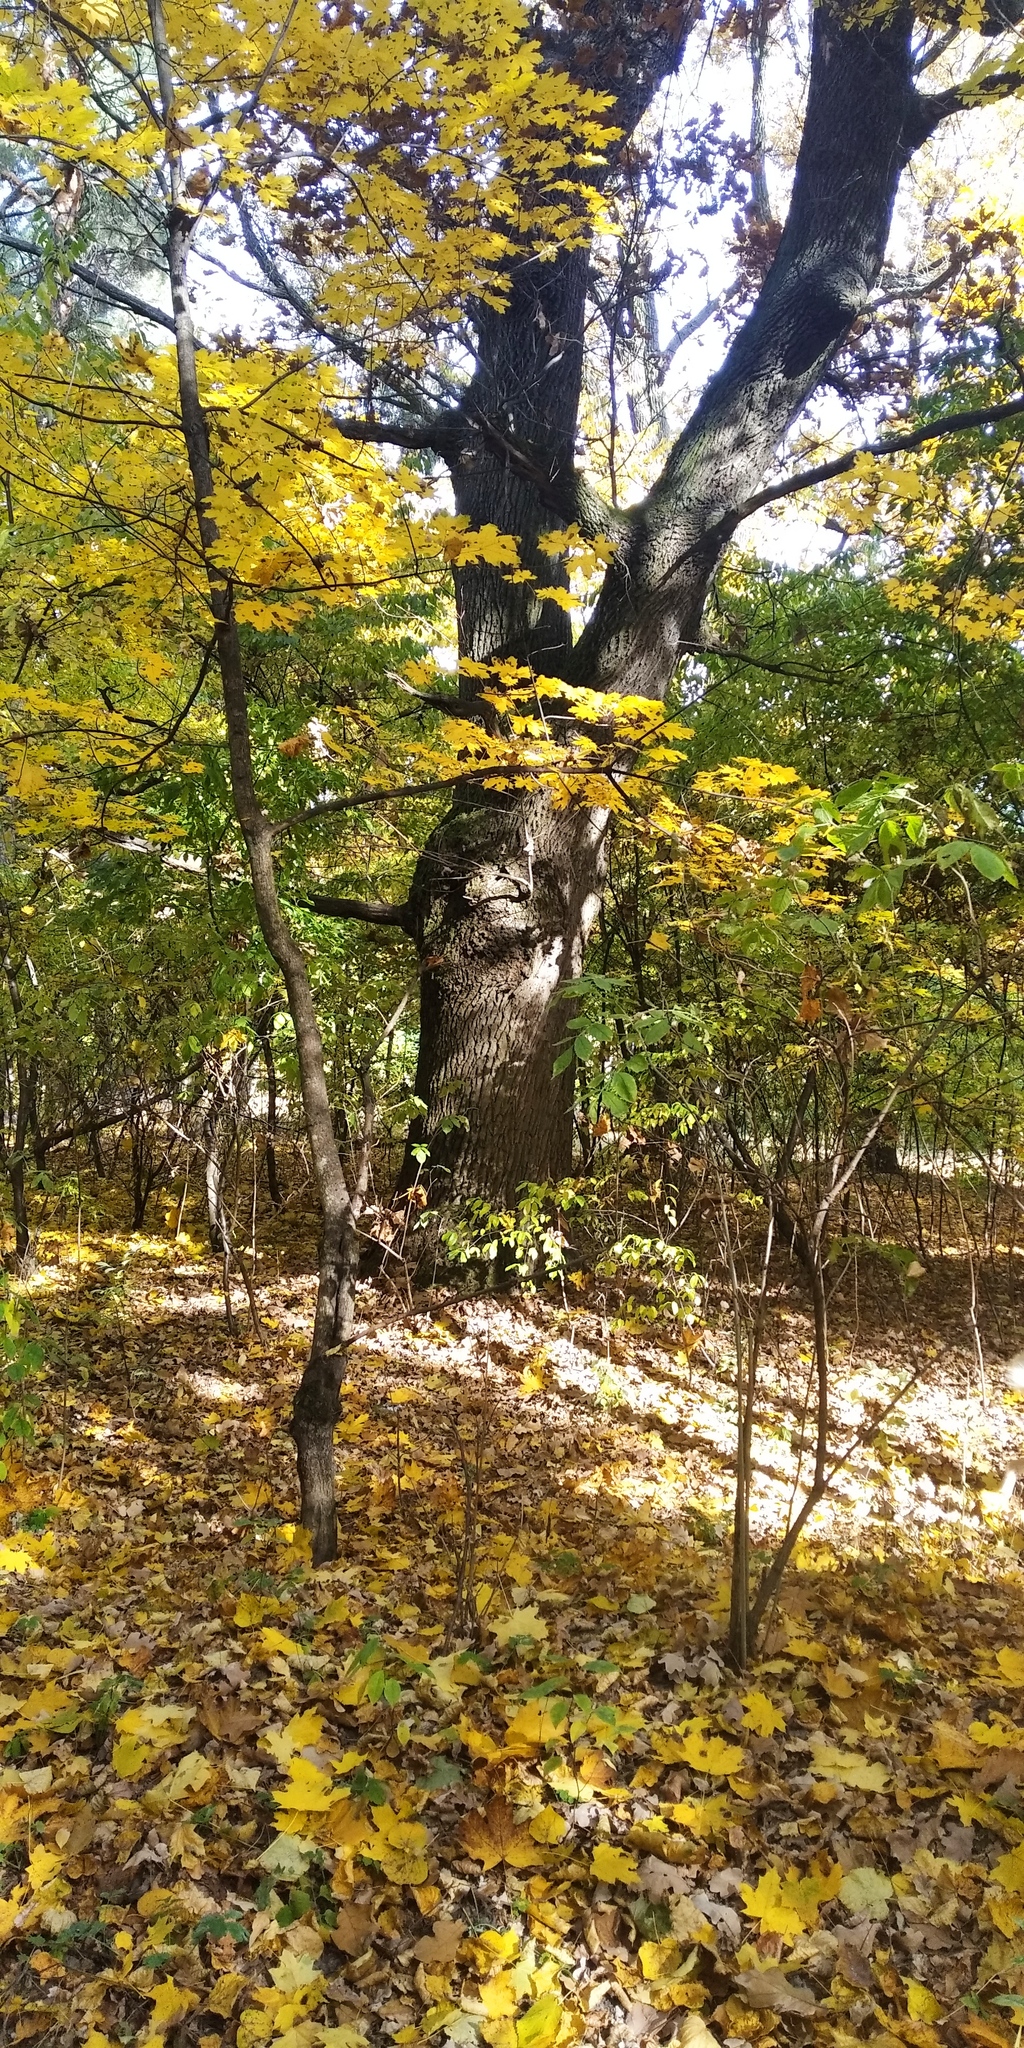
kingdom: Plantae
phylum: Tracheophyta
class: Magnoliopsida
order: Fagales
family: Fagaceae
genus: Quercus
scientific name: Quercus robur
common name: Pedunculate oak
